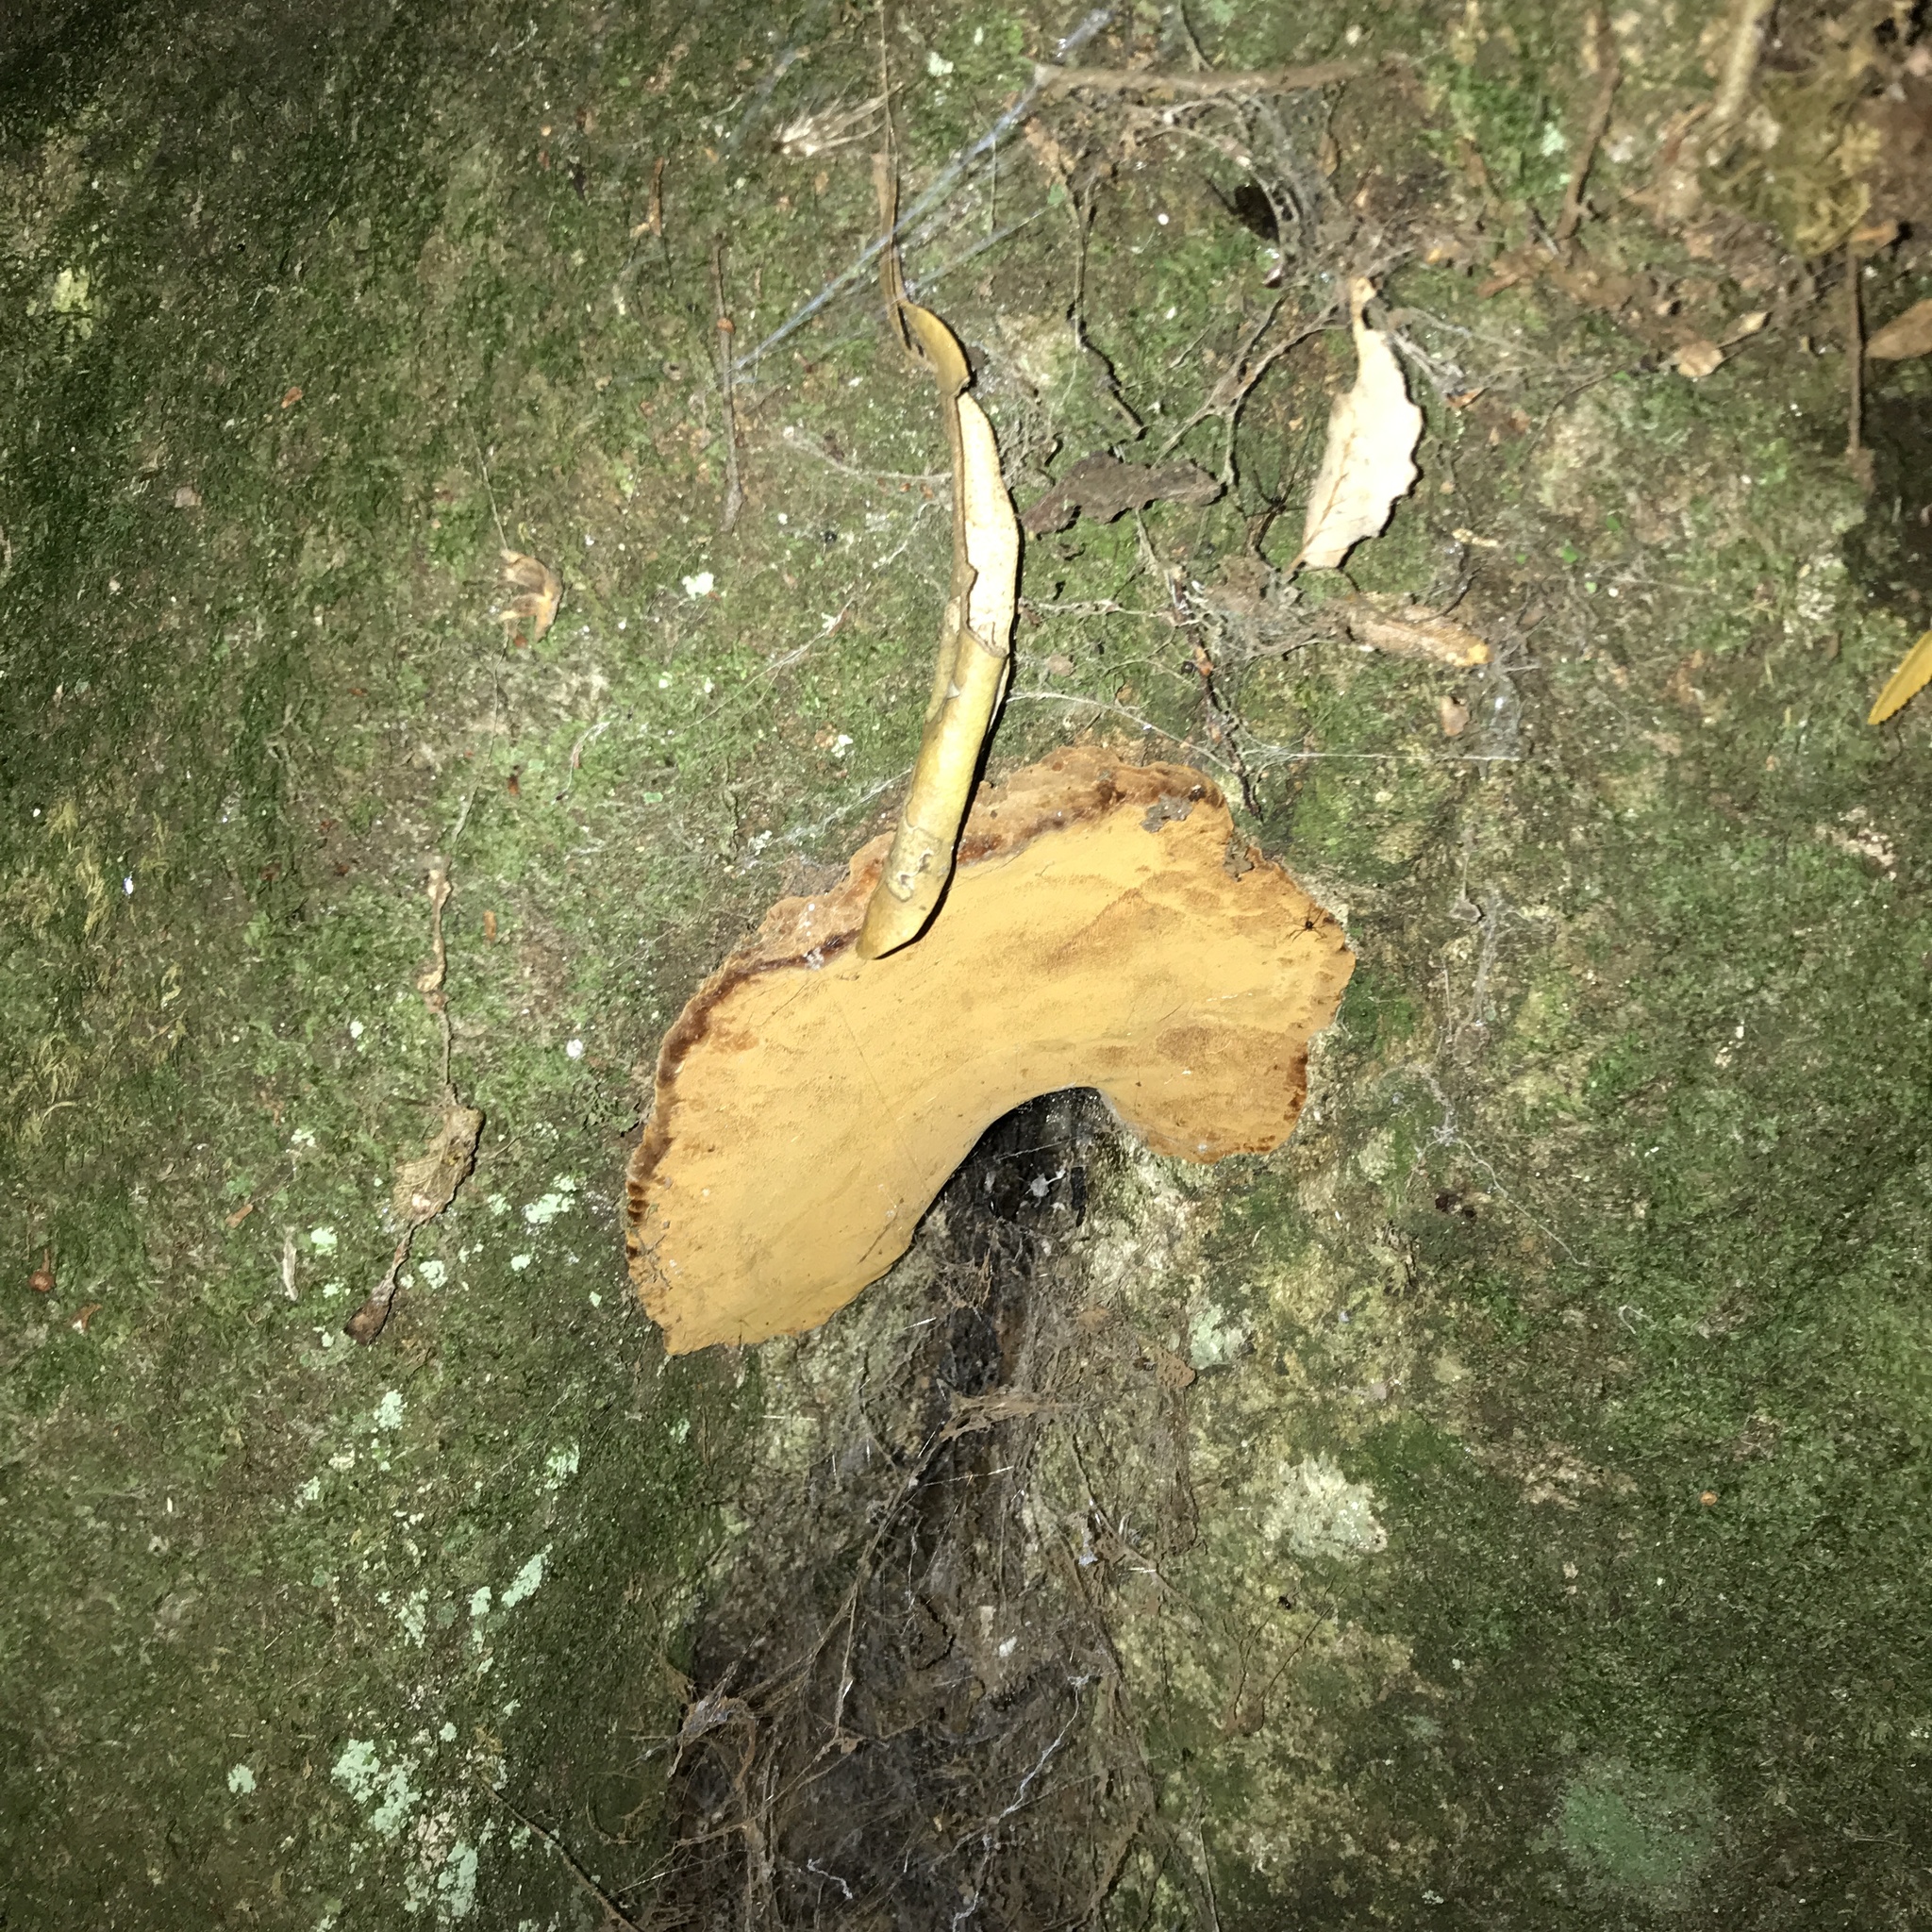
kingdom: Fungi
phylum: Basidiomycota
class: Agaricomycetes
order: Hymenochaetales
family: Hymenochaetaceae
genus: Fuscoporia
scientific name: Fuscoporia senex
